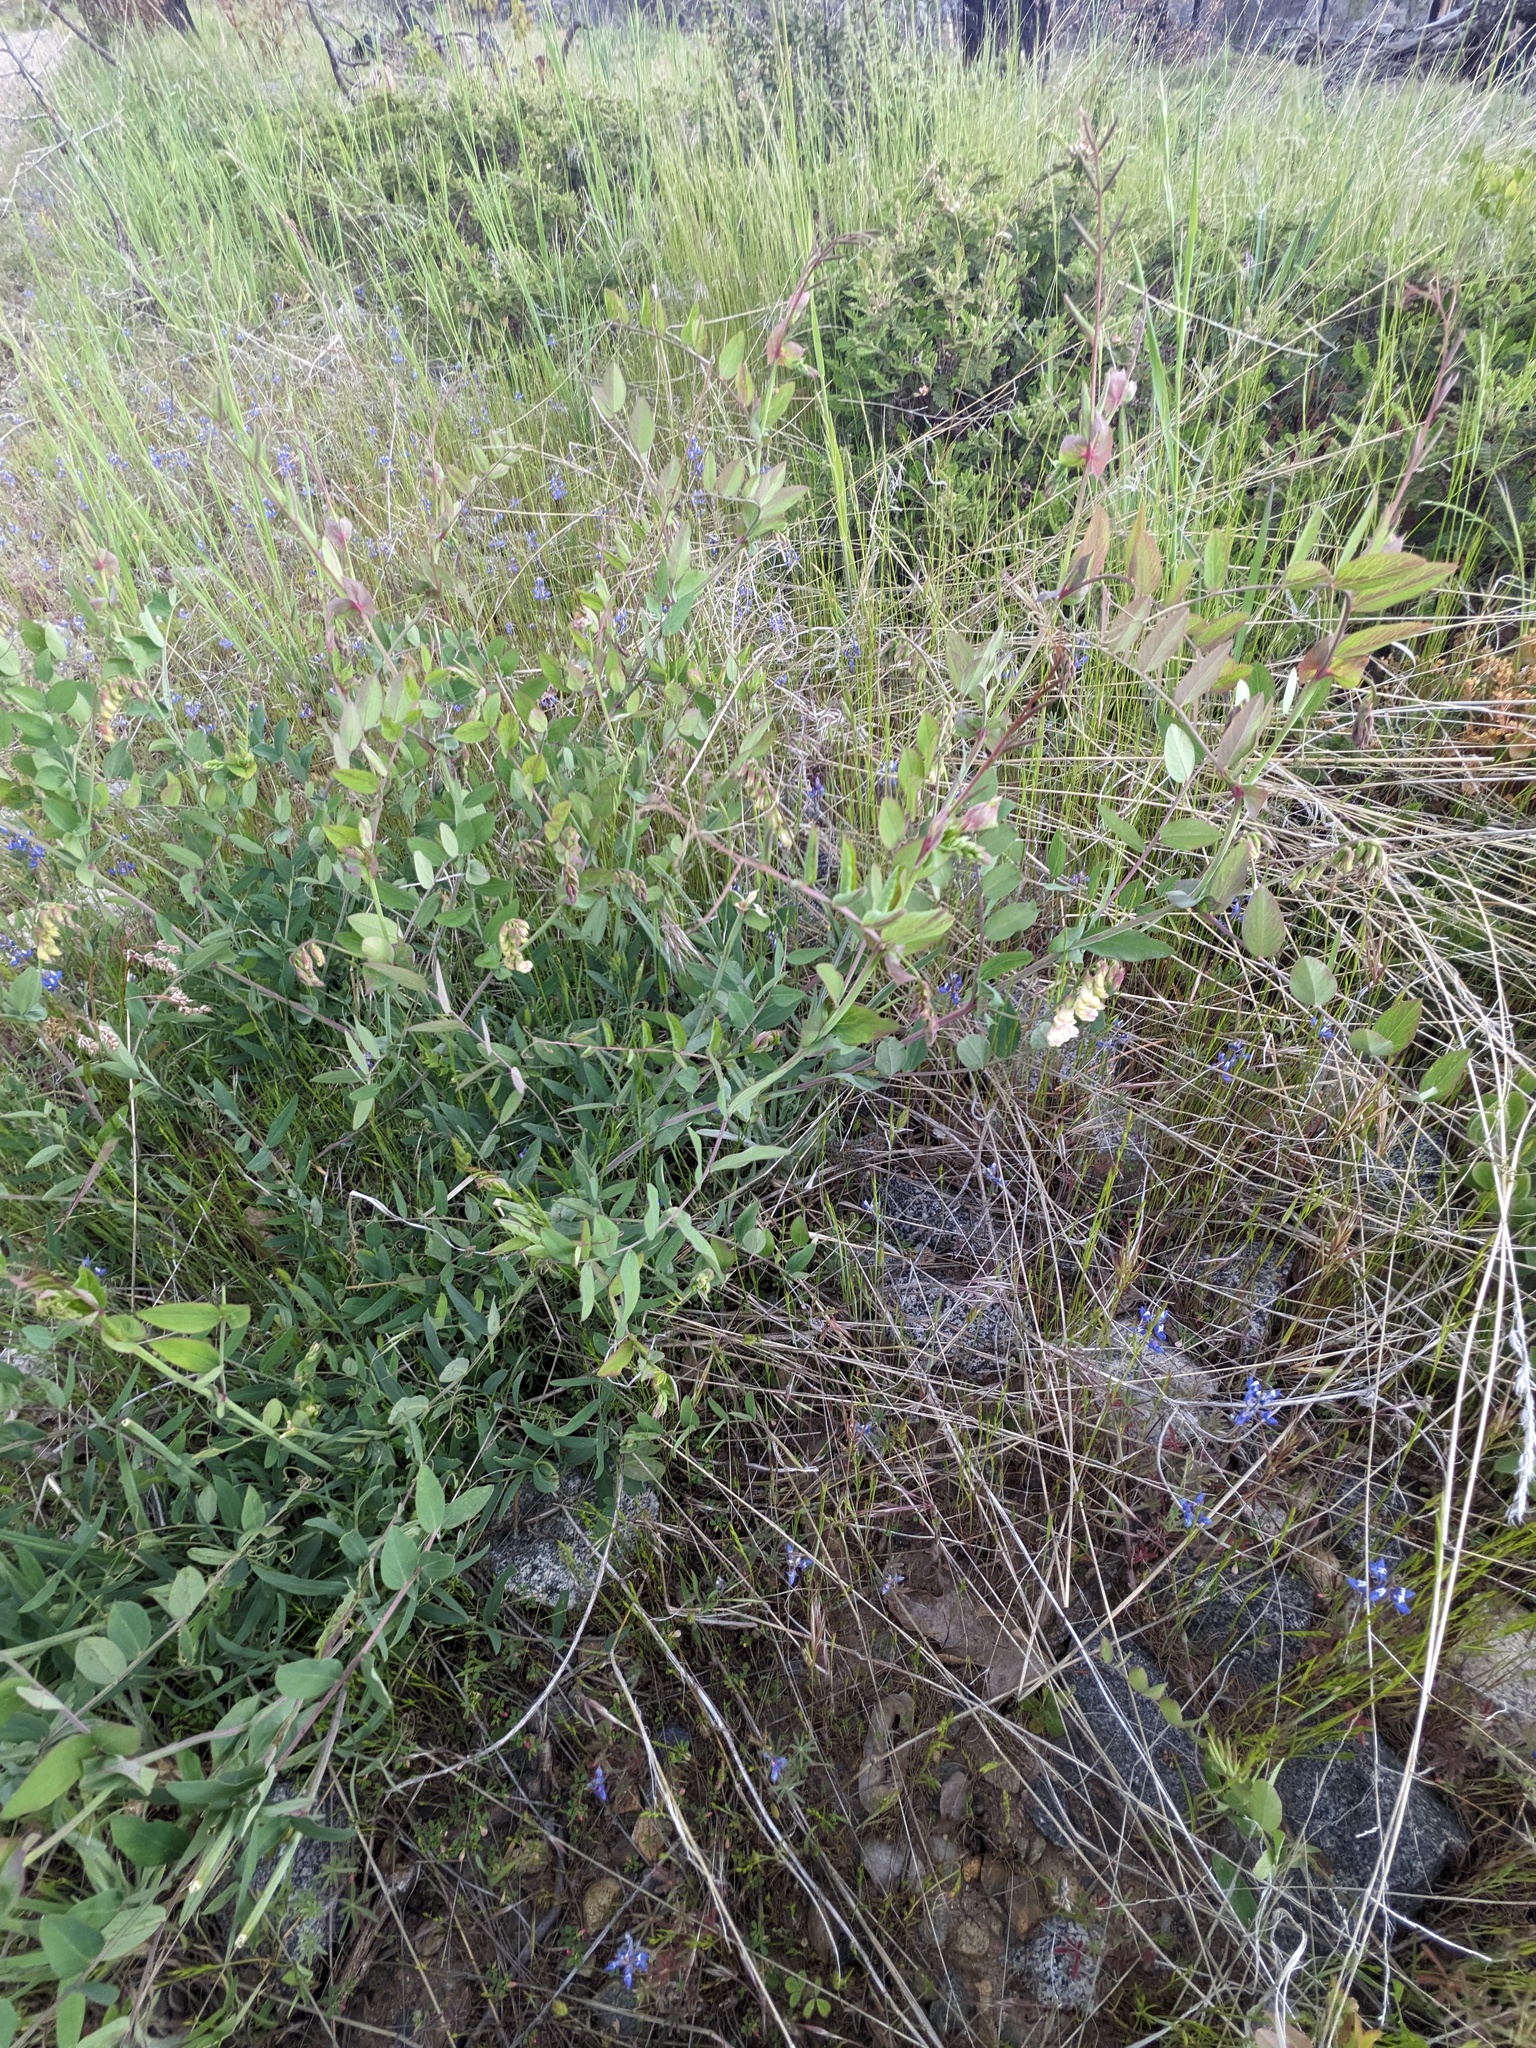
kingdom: Plantae
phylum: Tracheophyta
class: Magnoliopsida
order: Fabales
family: Fabaceae
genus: Lathyrus
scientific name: Lathyrus sulphureus
